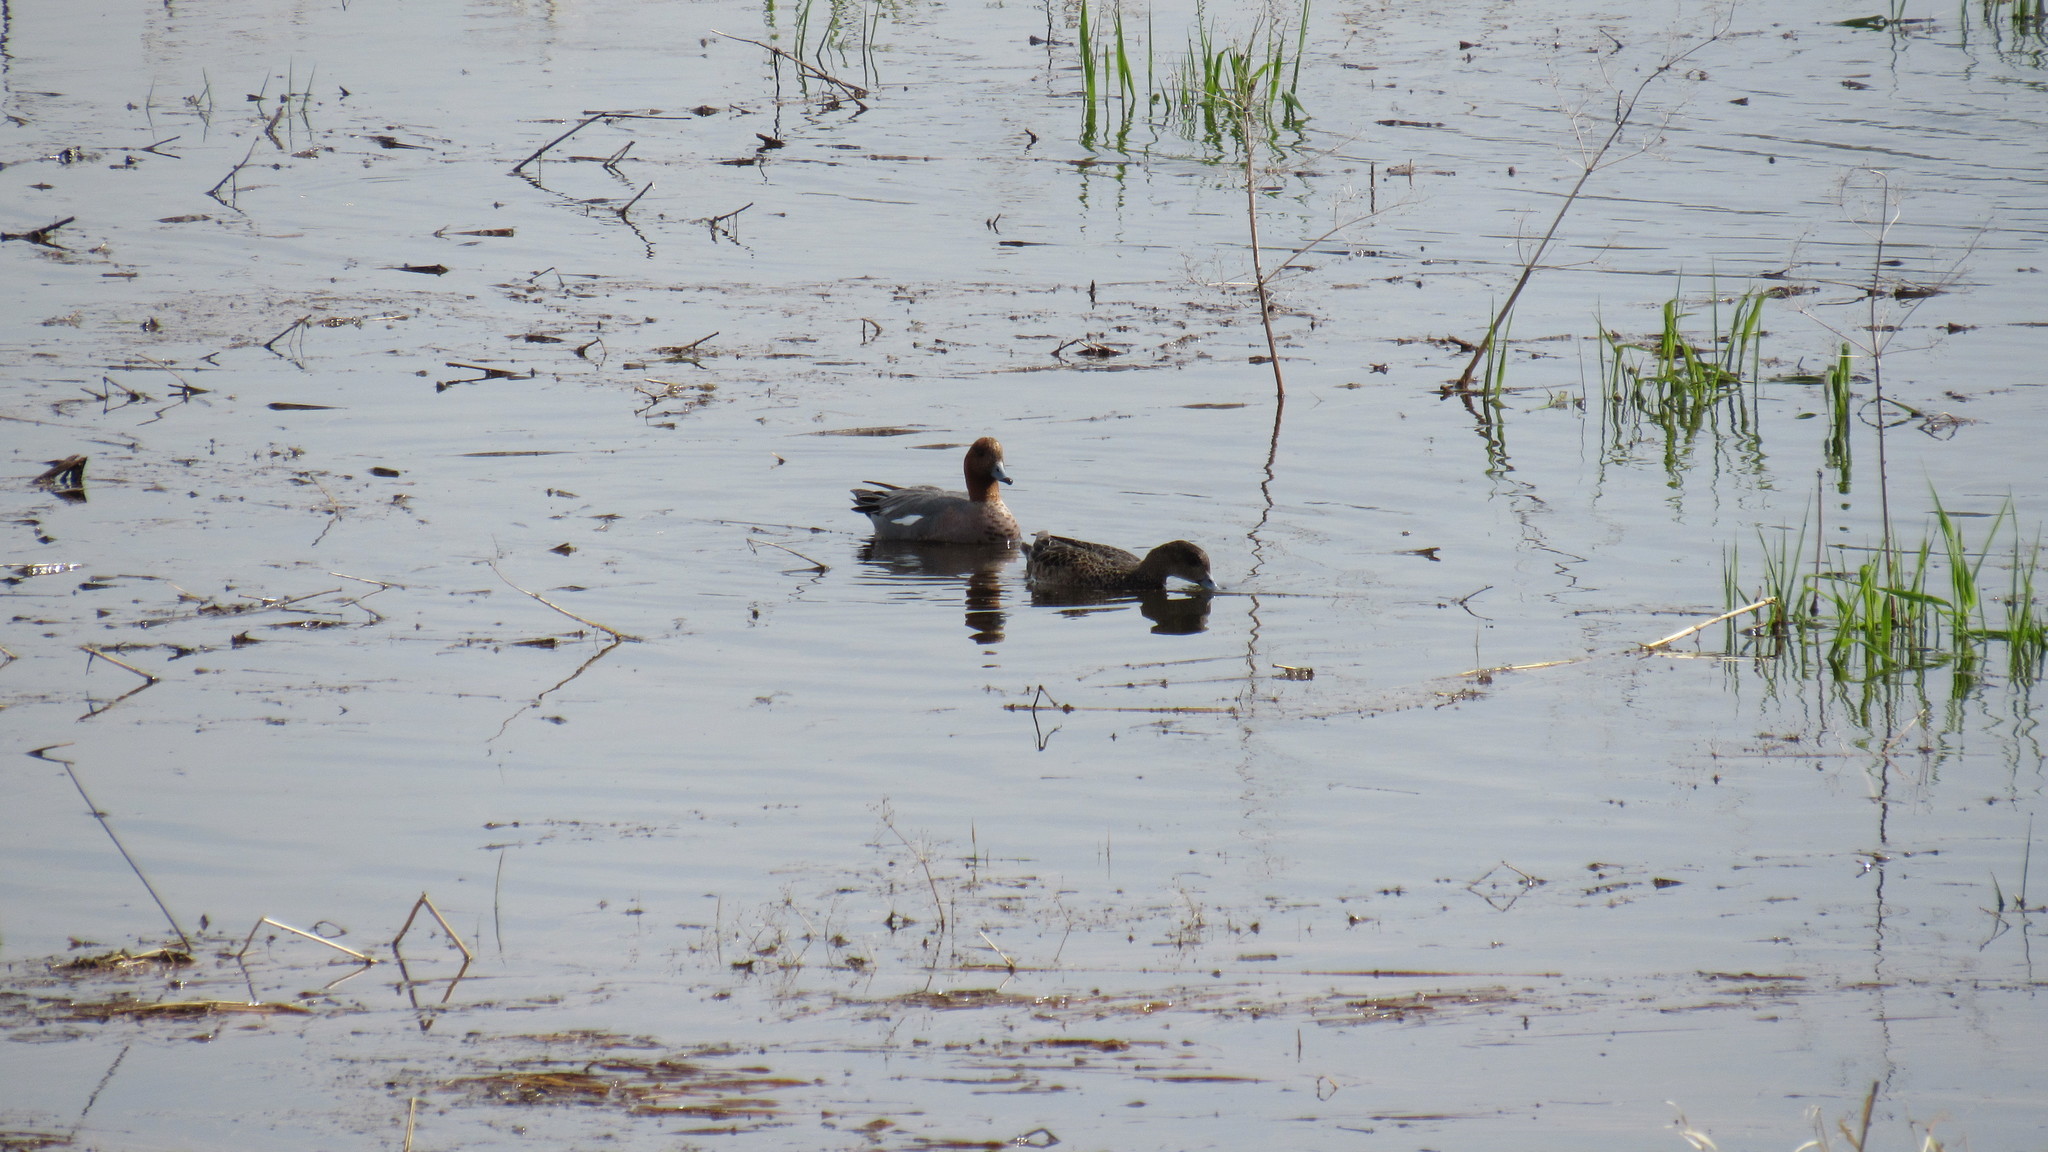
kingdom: Animalia
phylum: Chordata
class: Aves
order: Anseriformes
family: Anatidae
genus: Mareca
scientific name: Mareca penelope
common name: Eurasian wigeon
